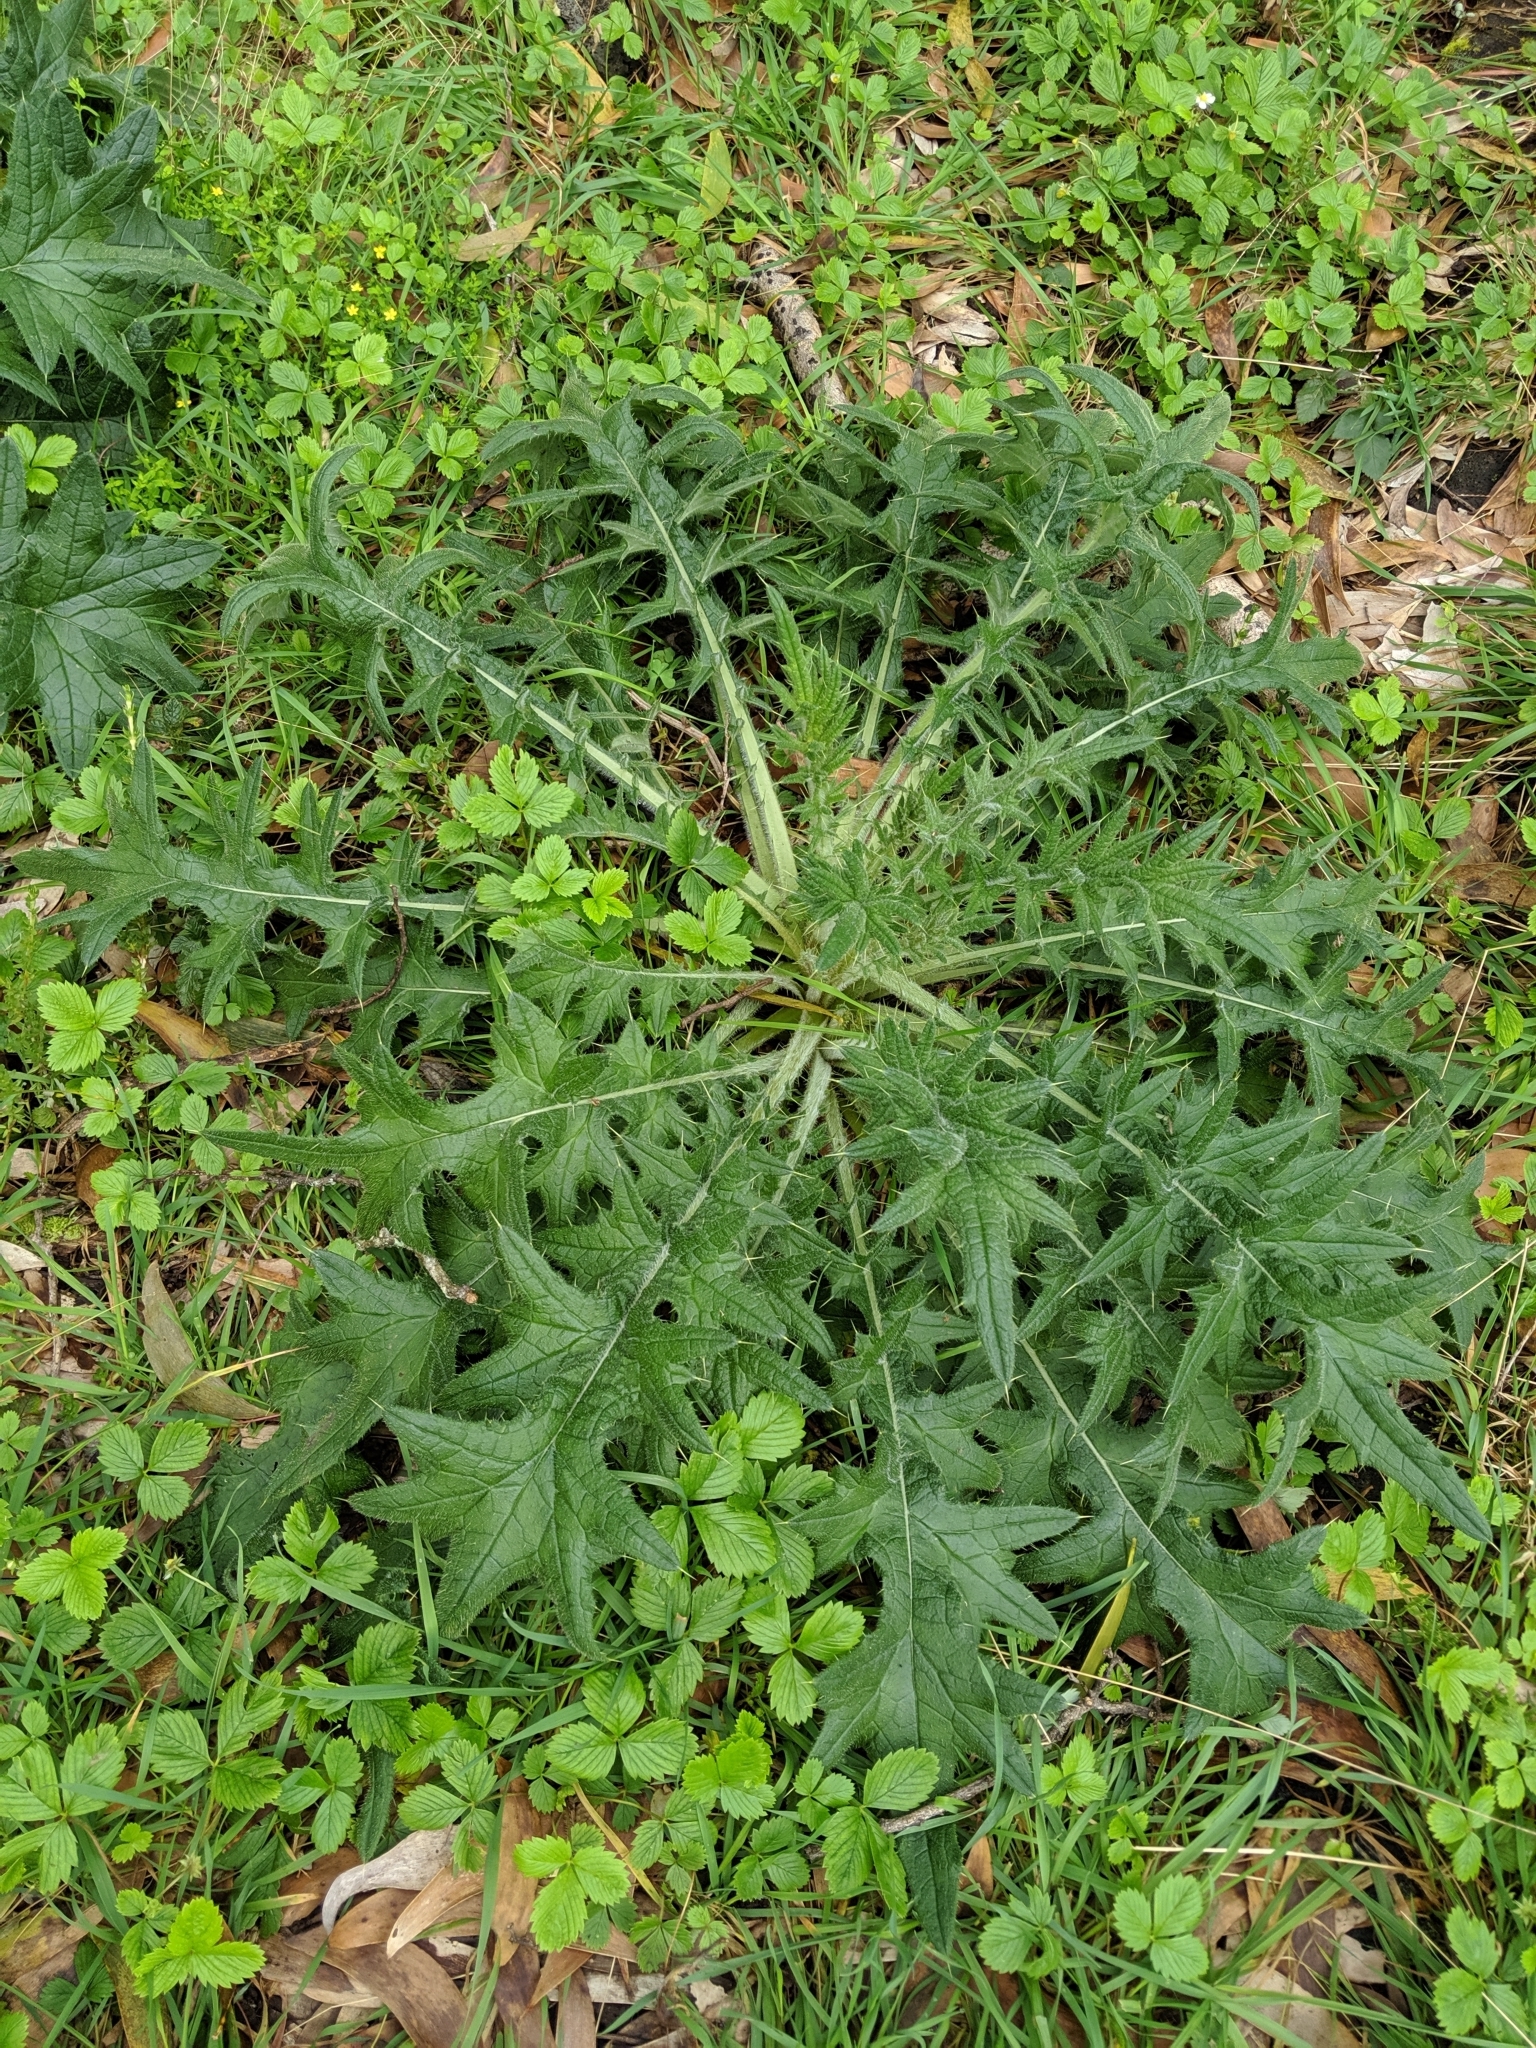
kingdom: Plantae
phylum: Tracheophyta
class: Magnoliopsida
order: Asterales
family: Asteraceae
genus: Cirsium
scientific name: Cirsium vulgare
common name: Bull thistle
